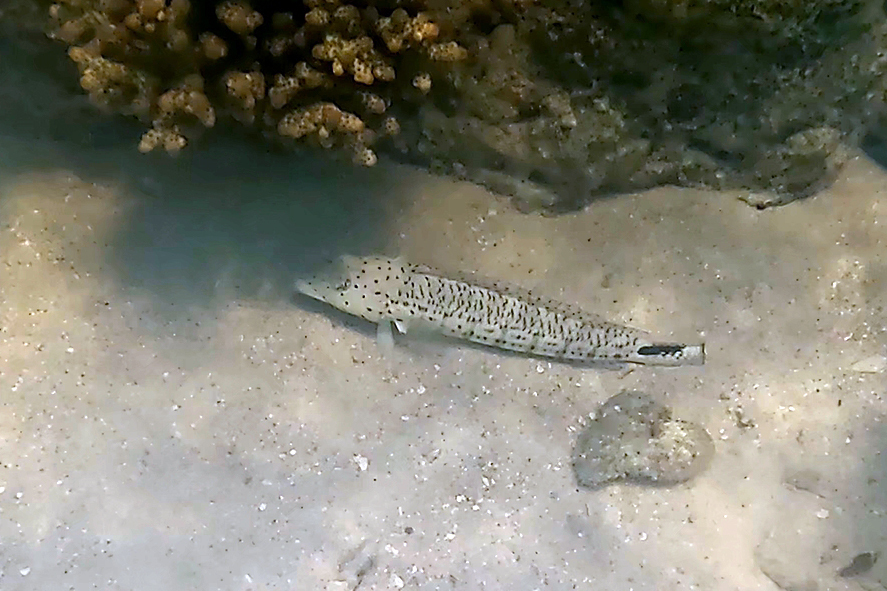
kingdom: Animalia
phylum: Chordata
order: Perciformes
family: Pinguipedidae
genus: Parapercis
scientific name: Parapercis queenslandica
